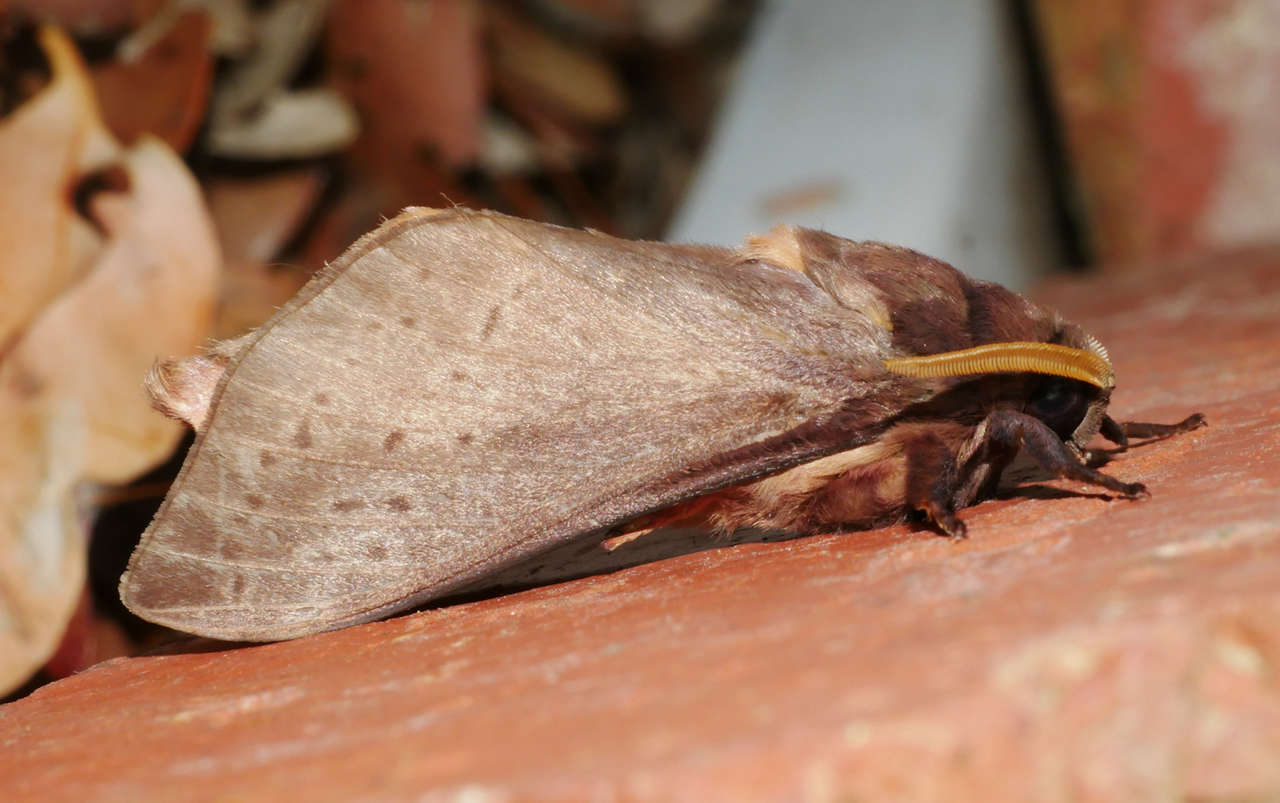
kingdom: Animalia
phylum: Arthropoda
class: Insecta
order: Lepidoptera
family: Hepialidae
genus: Oxycanus
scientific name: Oxycanus silvanus
